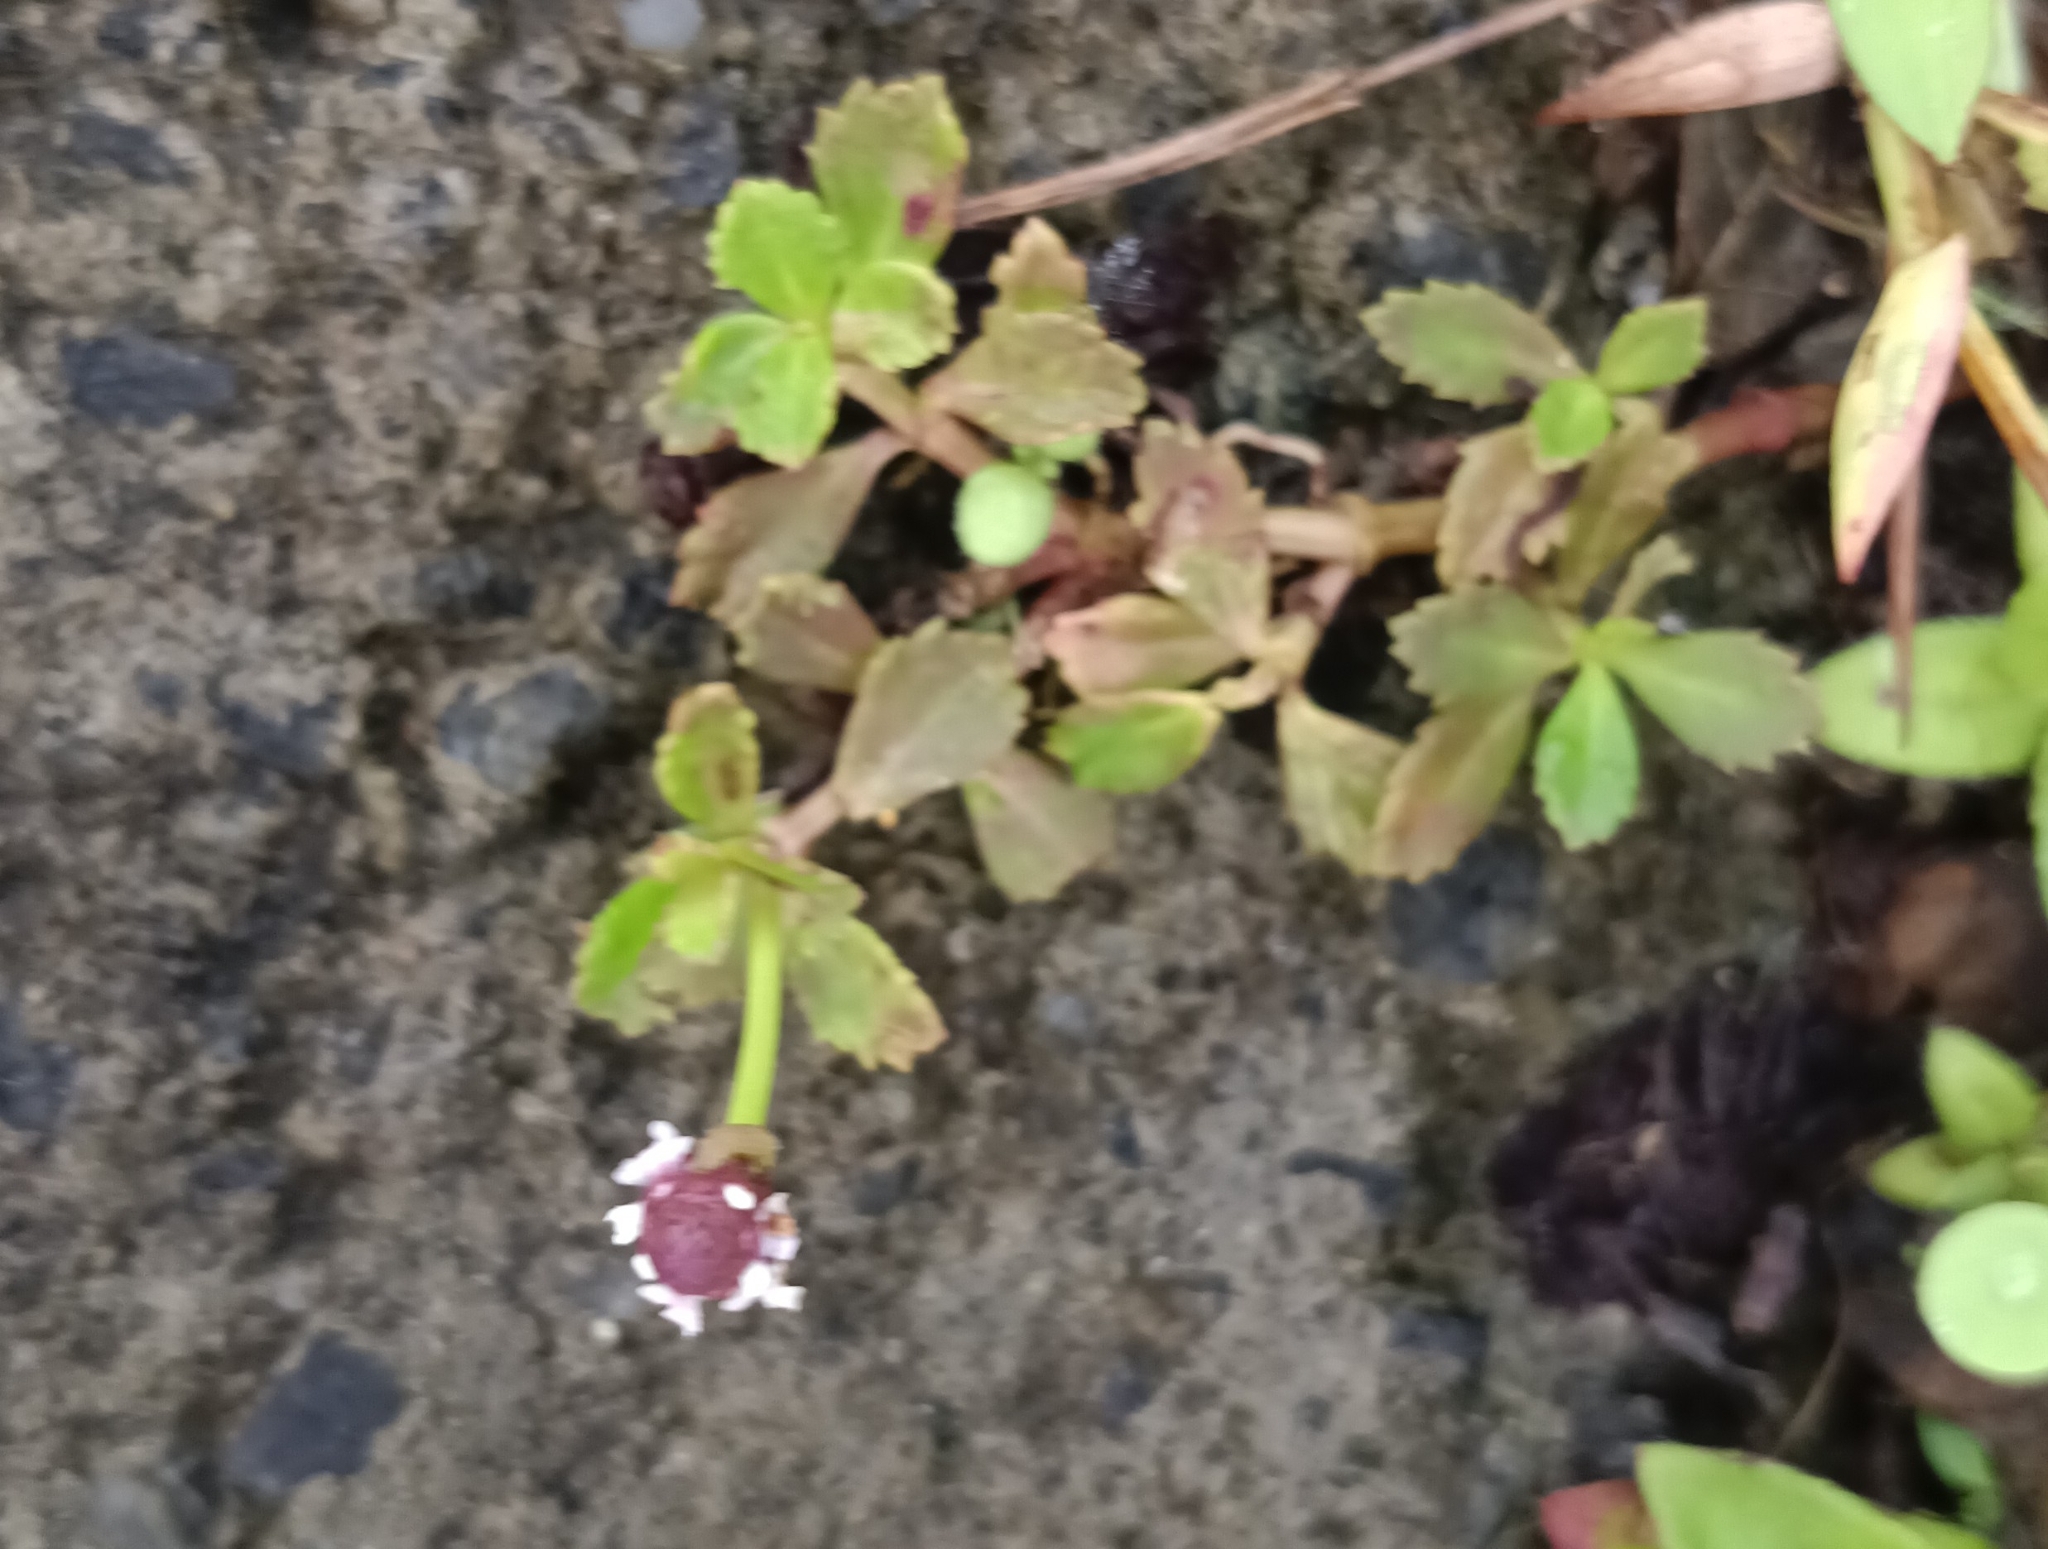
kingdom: Plantae
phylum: Tracheophyta
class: Magnoliopsida
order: Lamiales
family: Verbenaceae
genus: Phyla
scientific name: Phyla nodiflora
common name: Frogfruit
